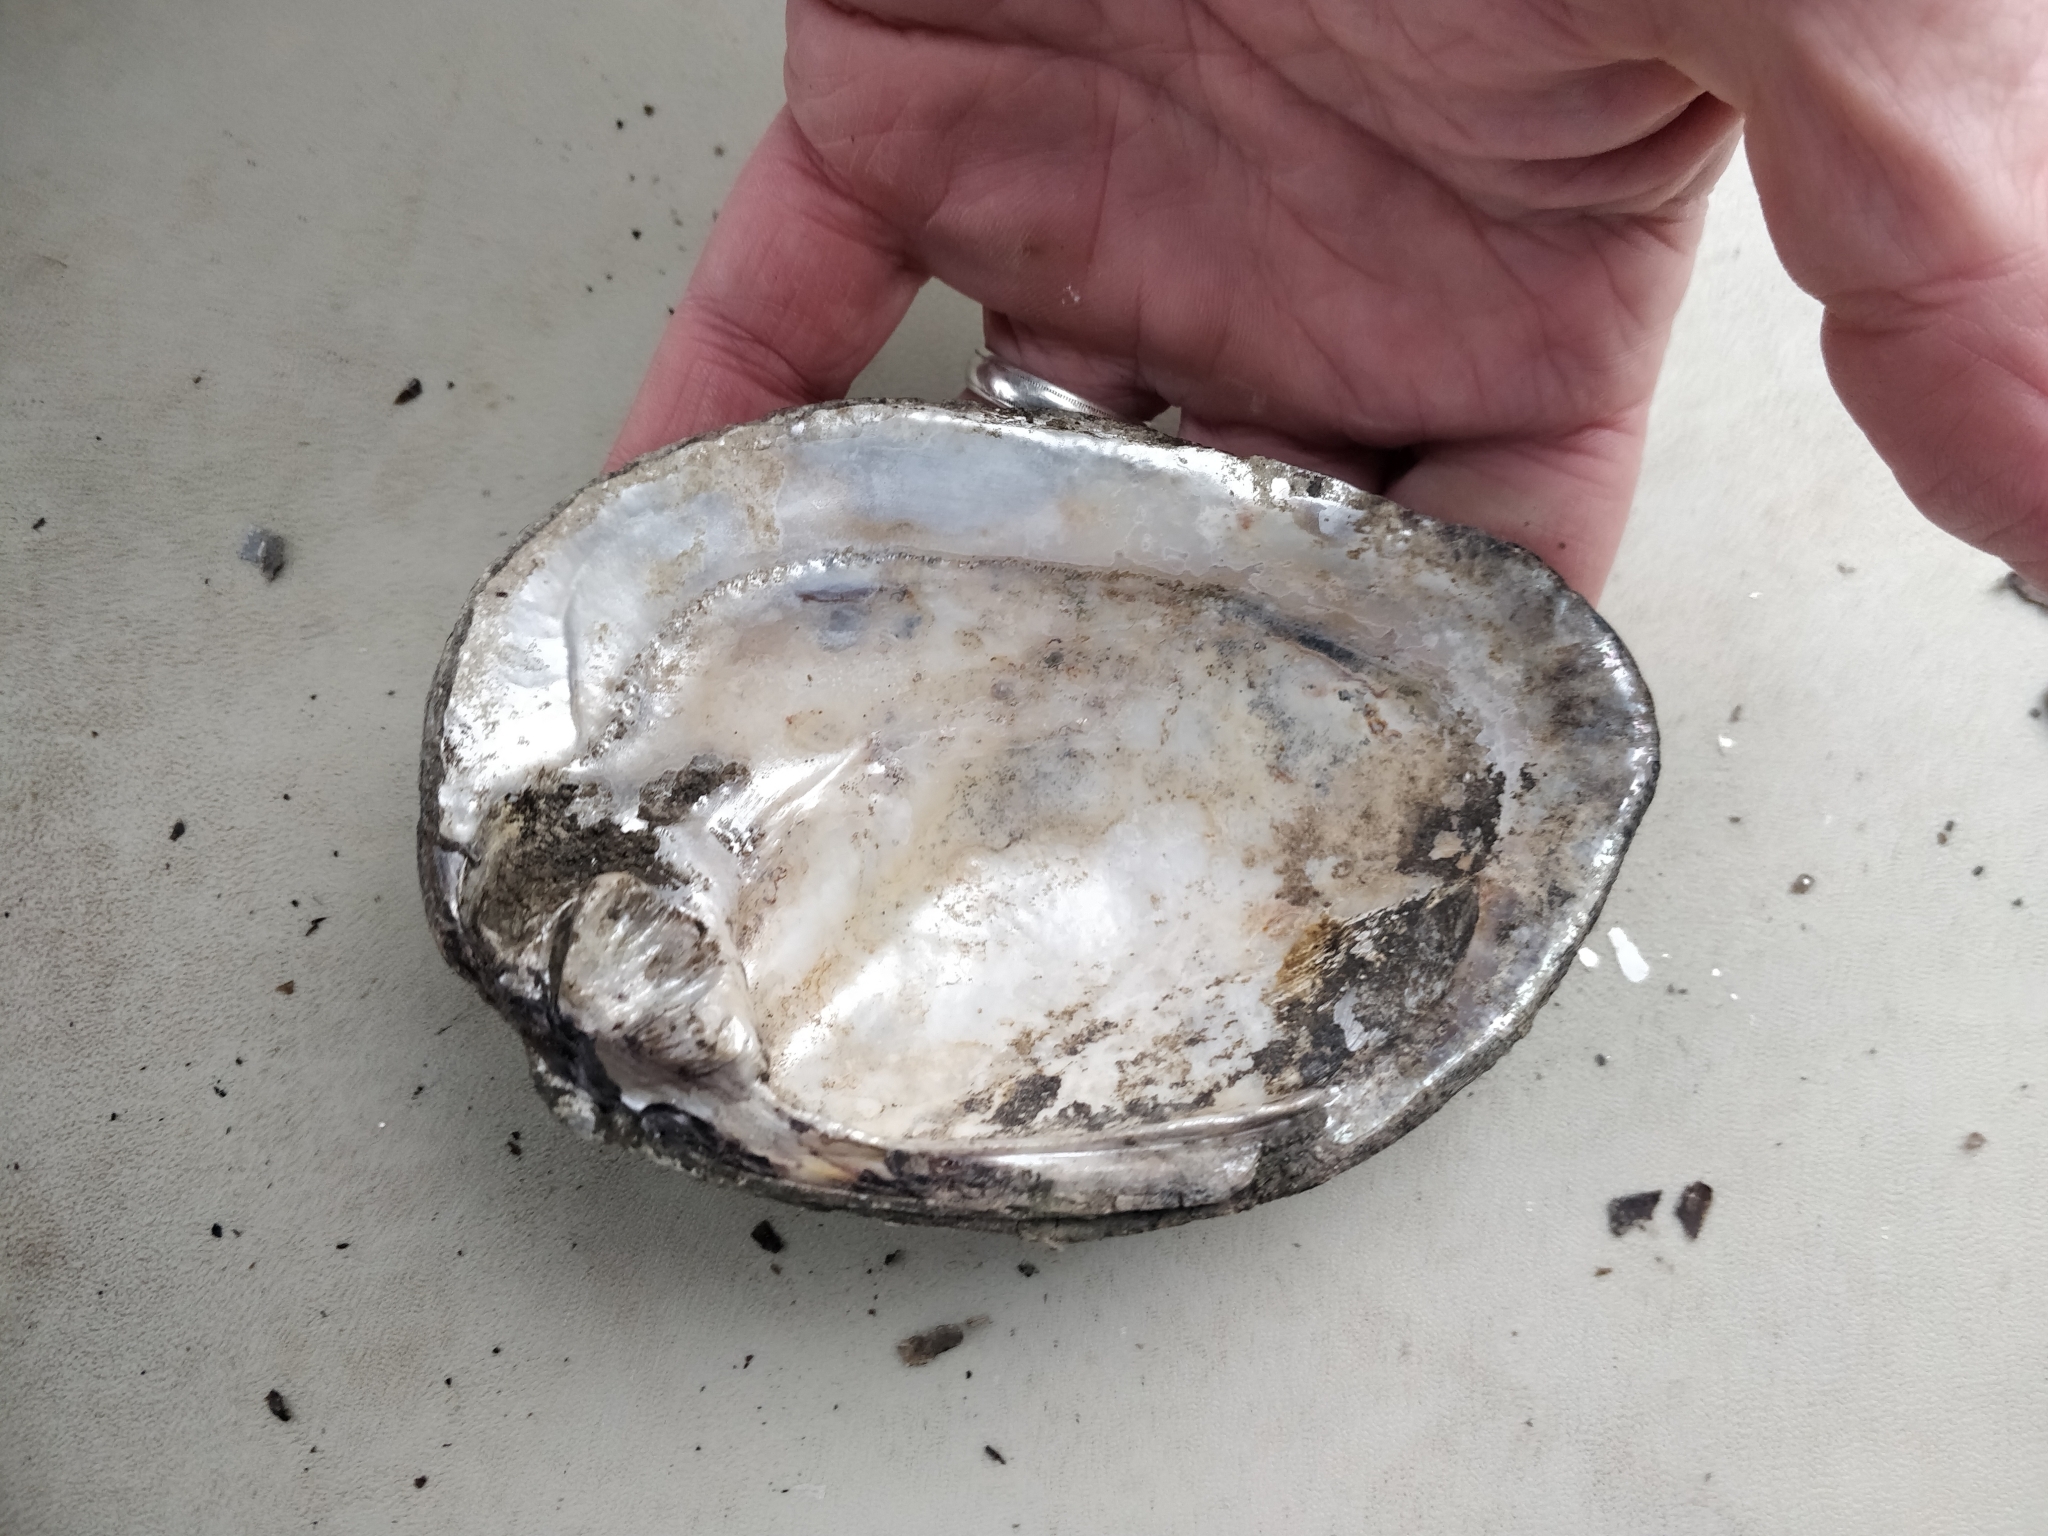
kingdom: Animalia
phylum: Mollusca
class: Bivalvia
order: Unionida
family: Unionidae
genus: Amblema
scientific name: Amblema plicata
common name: Threeridge
